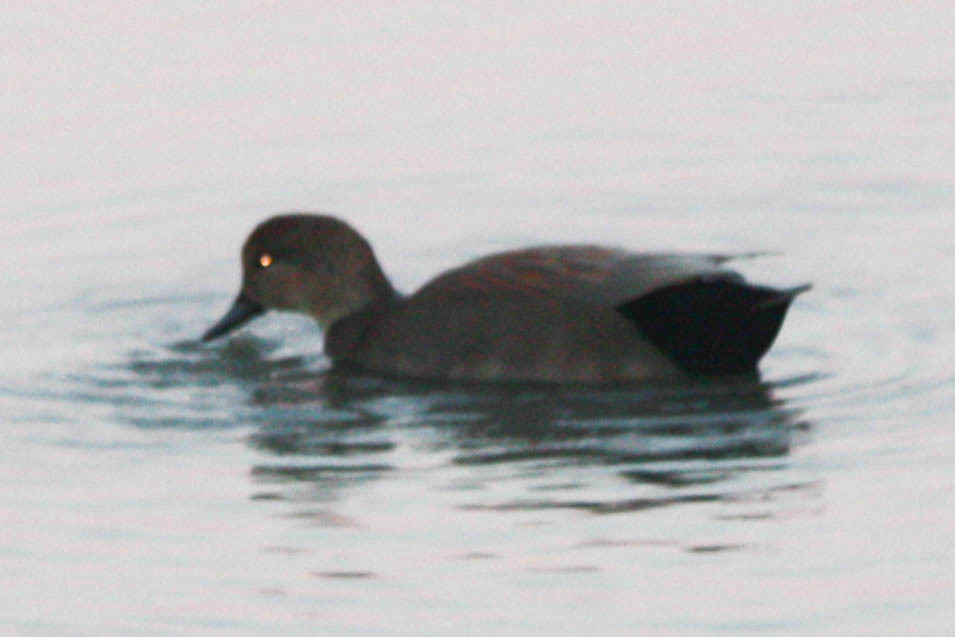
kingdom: Animalia
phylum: Chordata
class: Aves
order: Anseriformes
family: Anatidae
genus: Mareca
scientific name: Mareca strepera
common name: Gadwall
